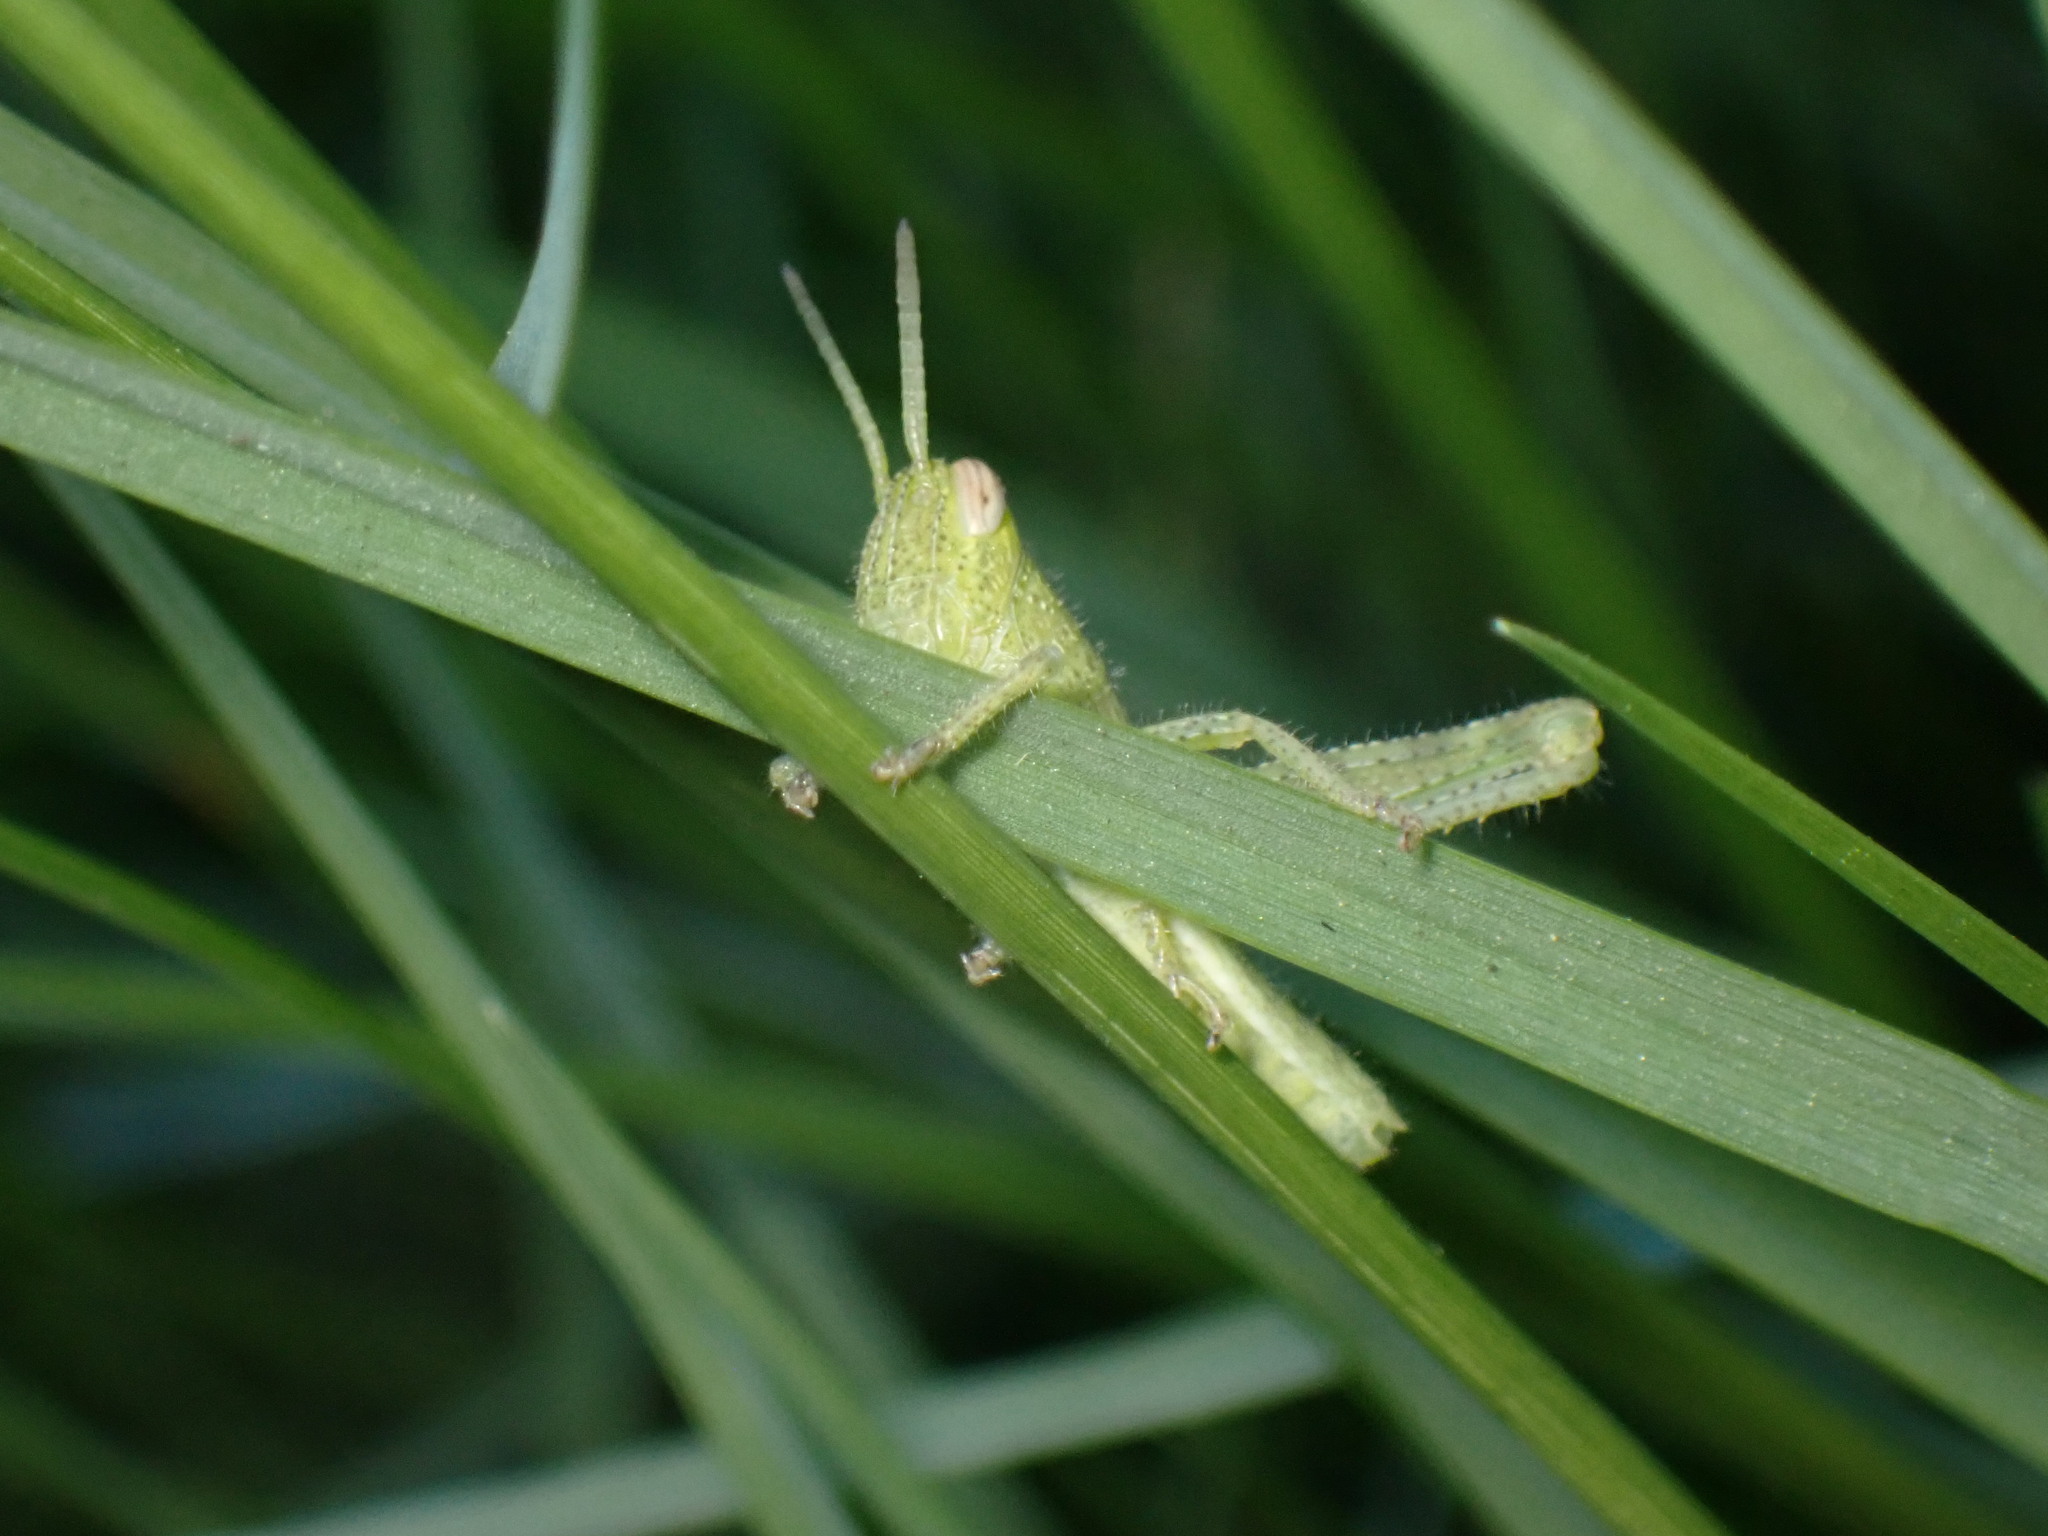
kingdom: Animalia
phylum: Arthropoda
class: Insecta
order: Orthoptera
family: Acrididae
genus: Schistocerca
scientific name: Schistocerca nitens
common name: Vagrant grasshopper
